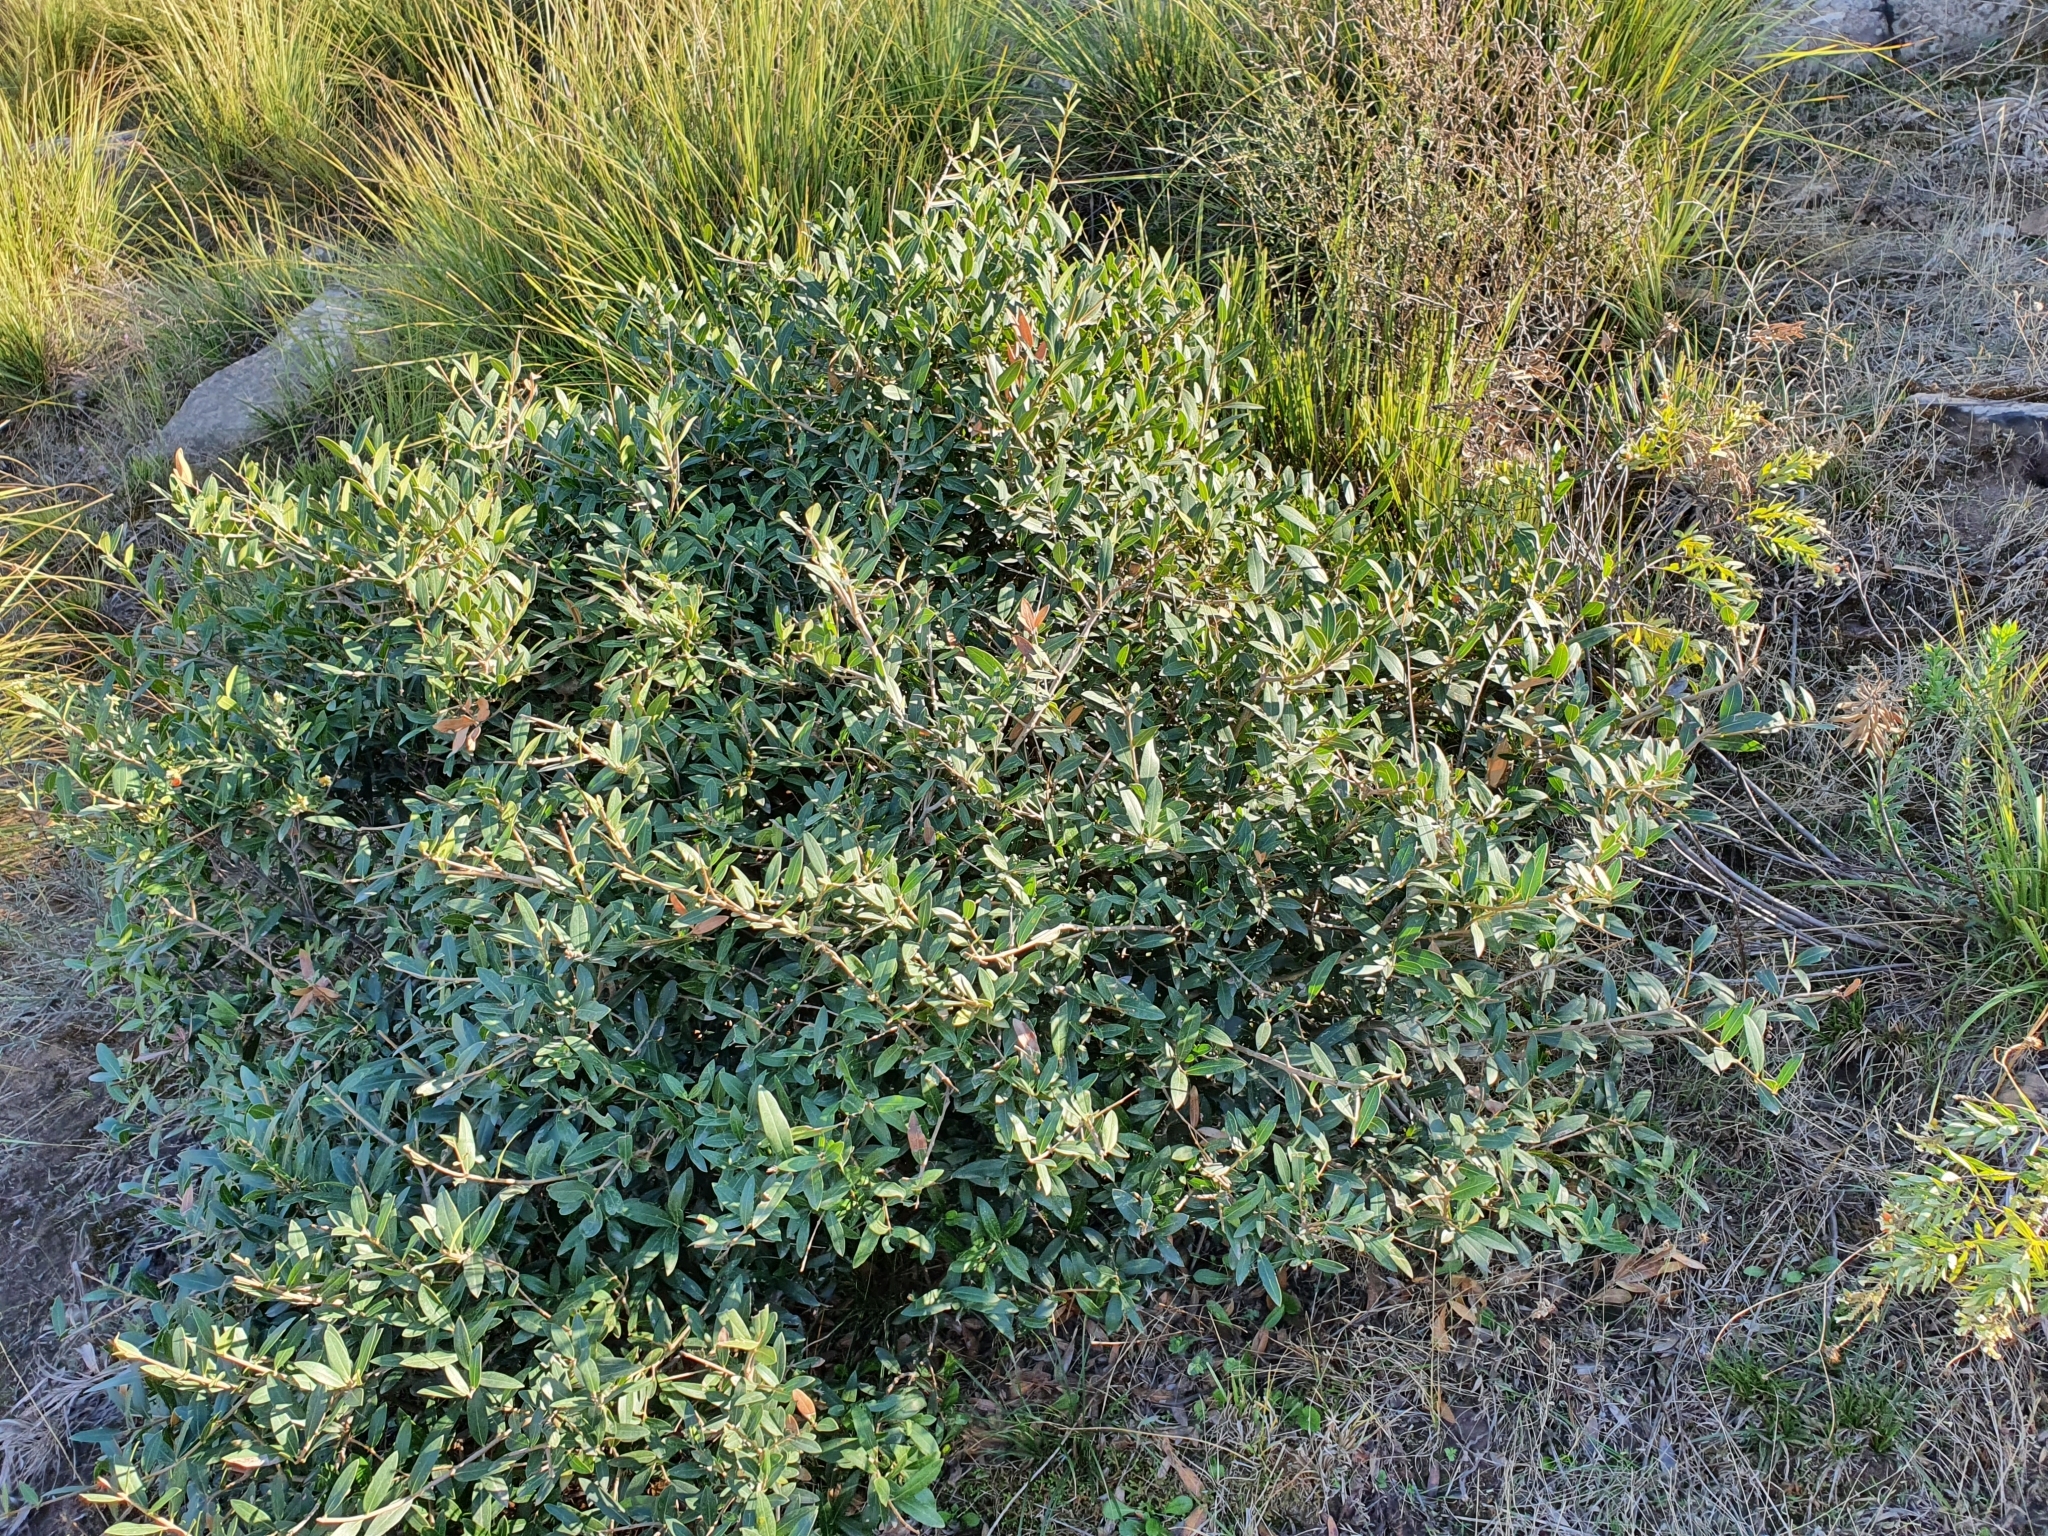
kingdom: Plantae
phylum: Tracheophyta
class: Magnoliopsida
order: Lamiales
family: Oleaceae
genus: Olea
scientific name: Olea europaea
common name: Olive
